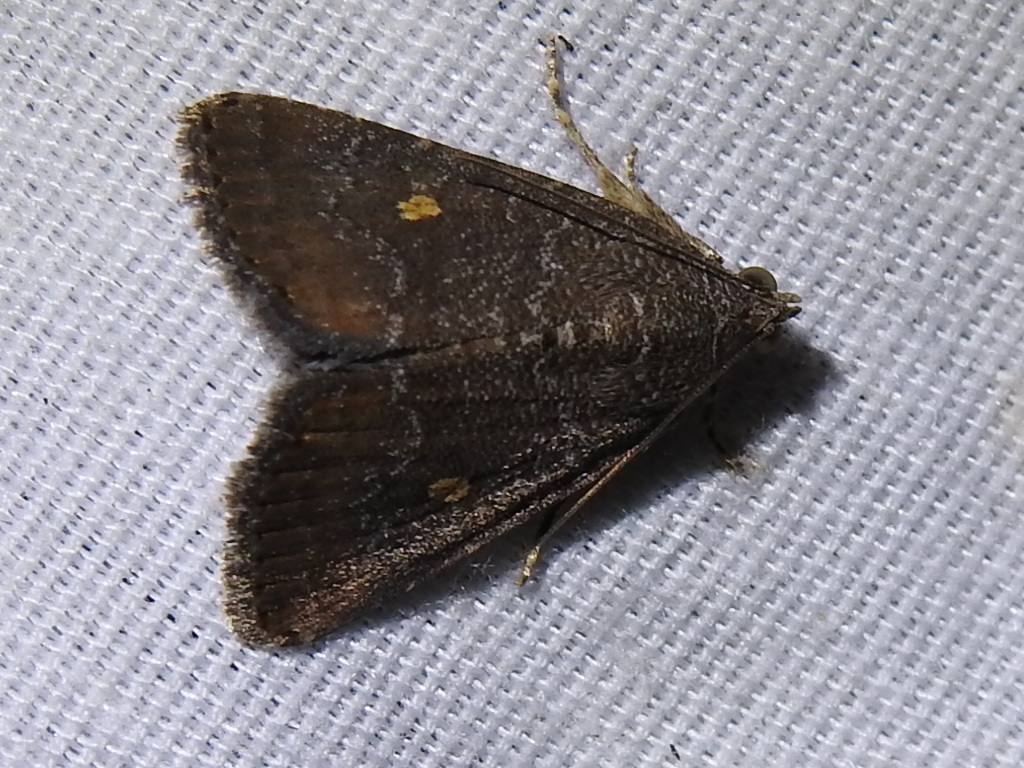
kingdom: Animalia
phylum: Arthropoda
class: Insecta
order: Lepidoptera
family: Noctuidae
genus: Amyna
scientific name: Amyna stricta
